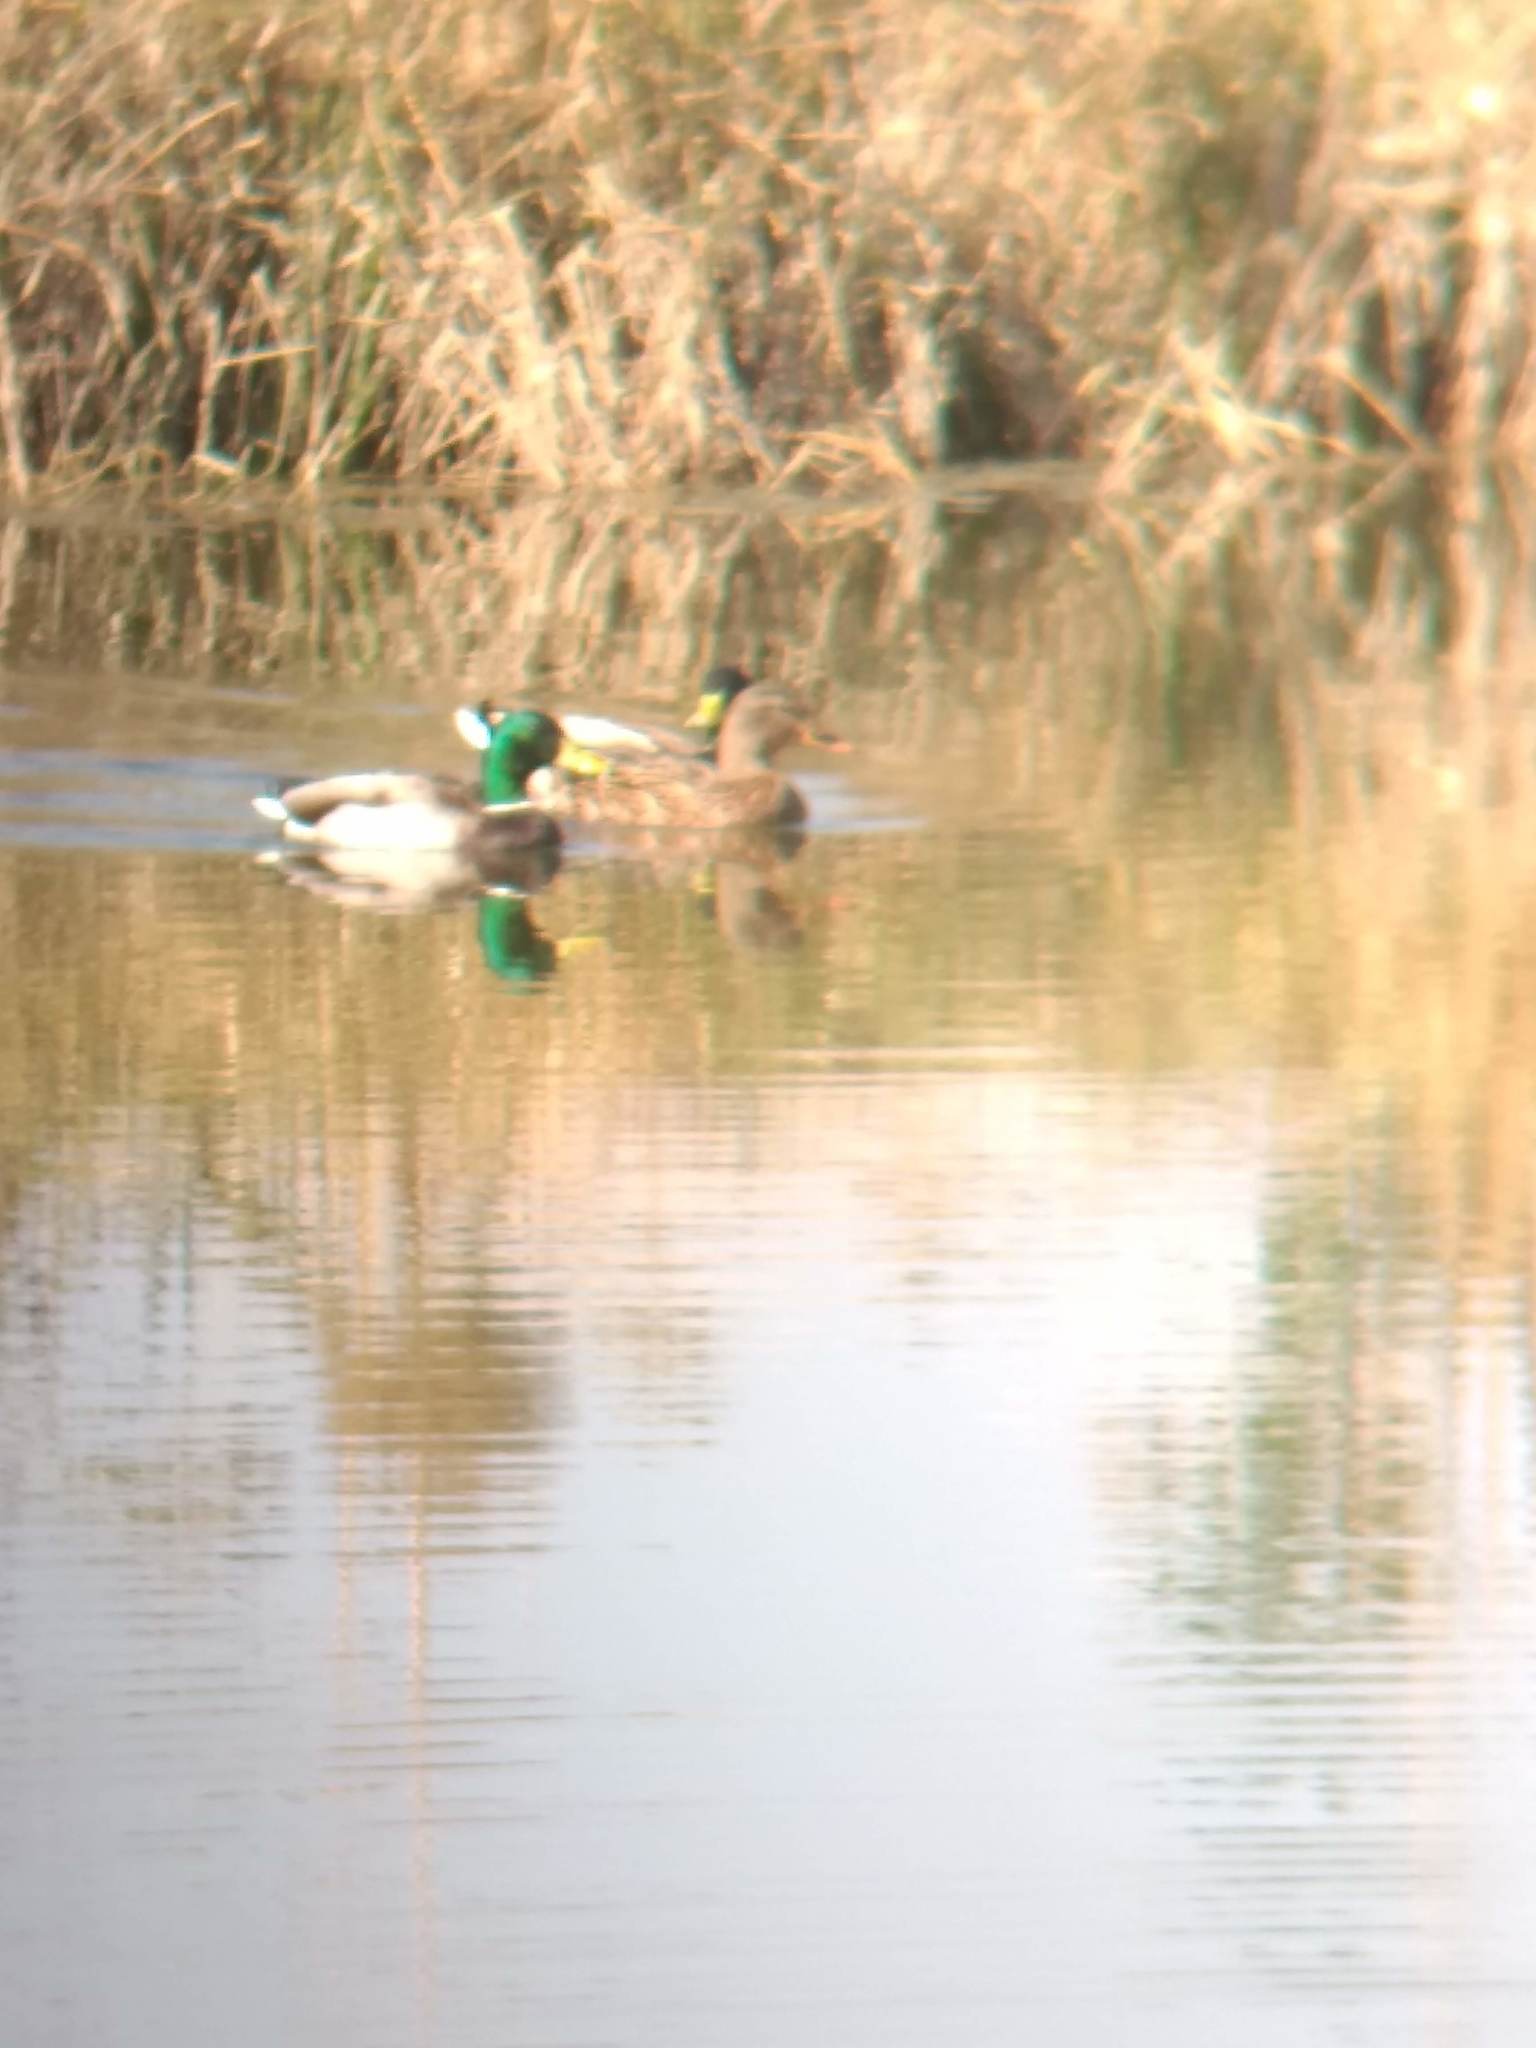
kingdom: Animalia
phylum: Chordata
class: Aves
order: Anseriformes
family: Anatidae
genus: Anas
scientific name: Anas platyrhynchos
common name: Mallard
